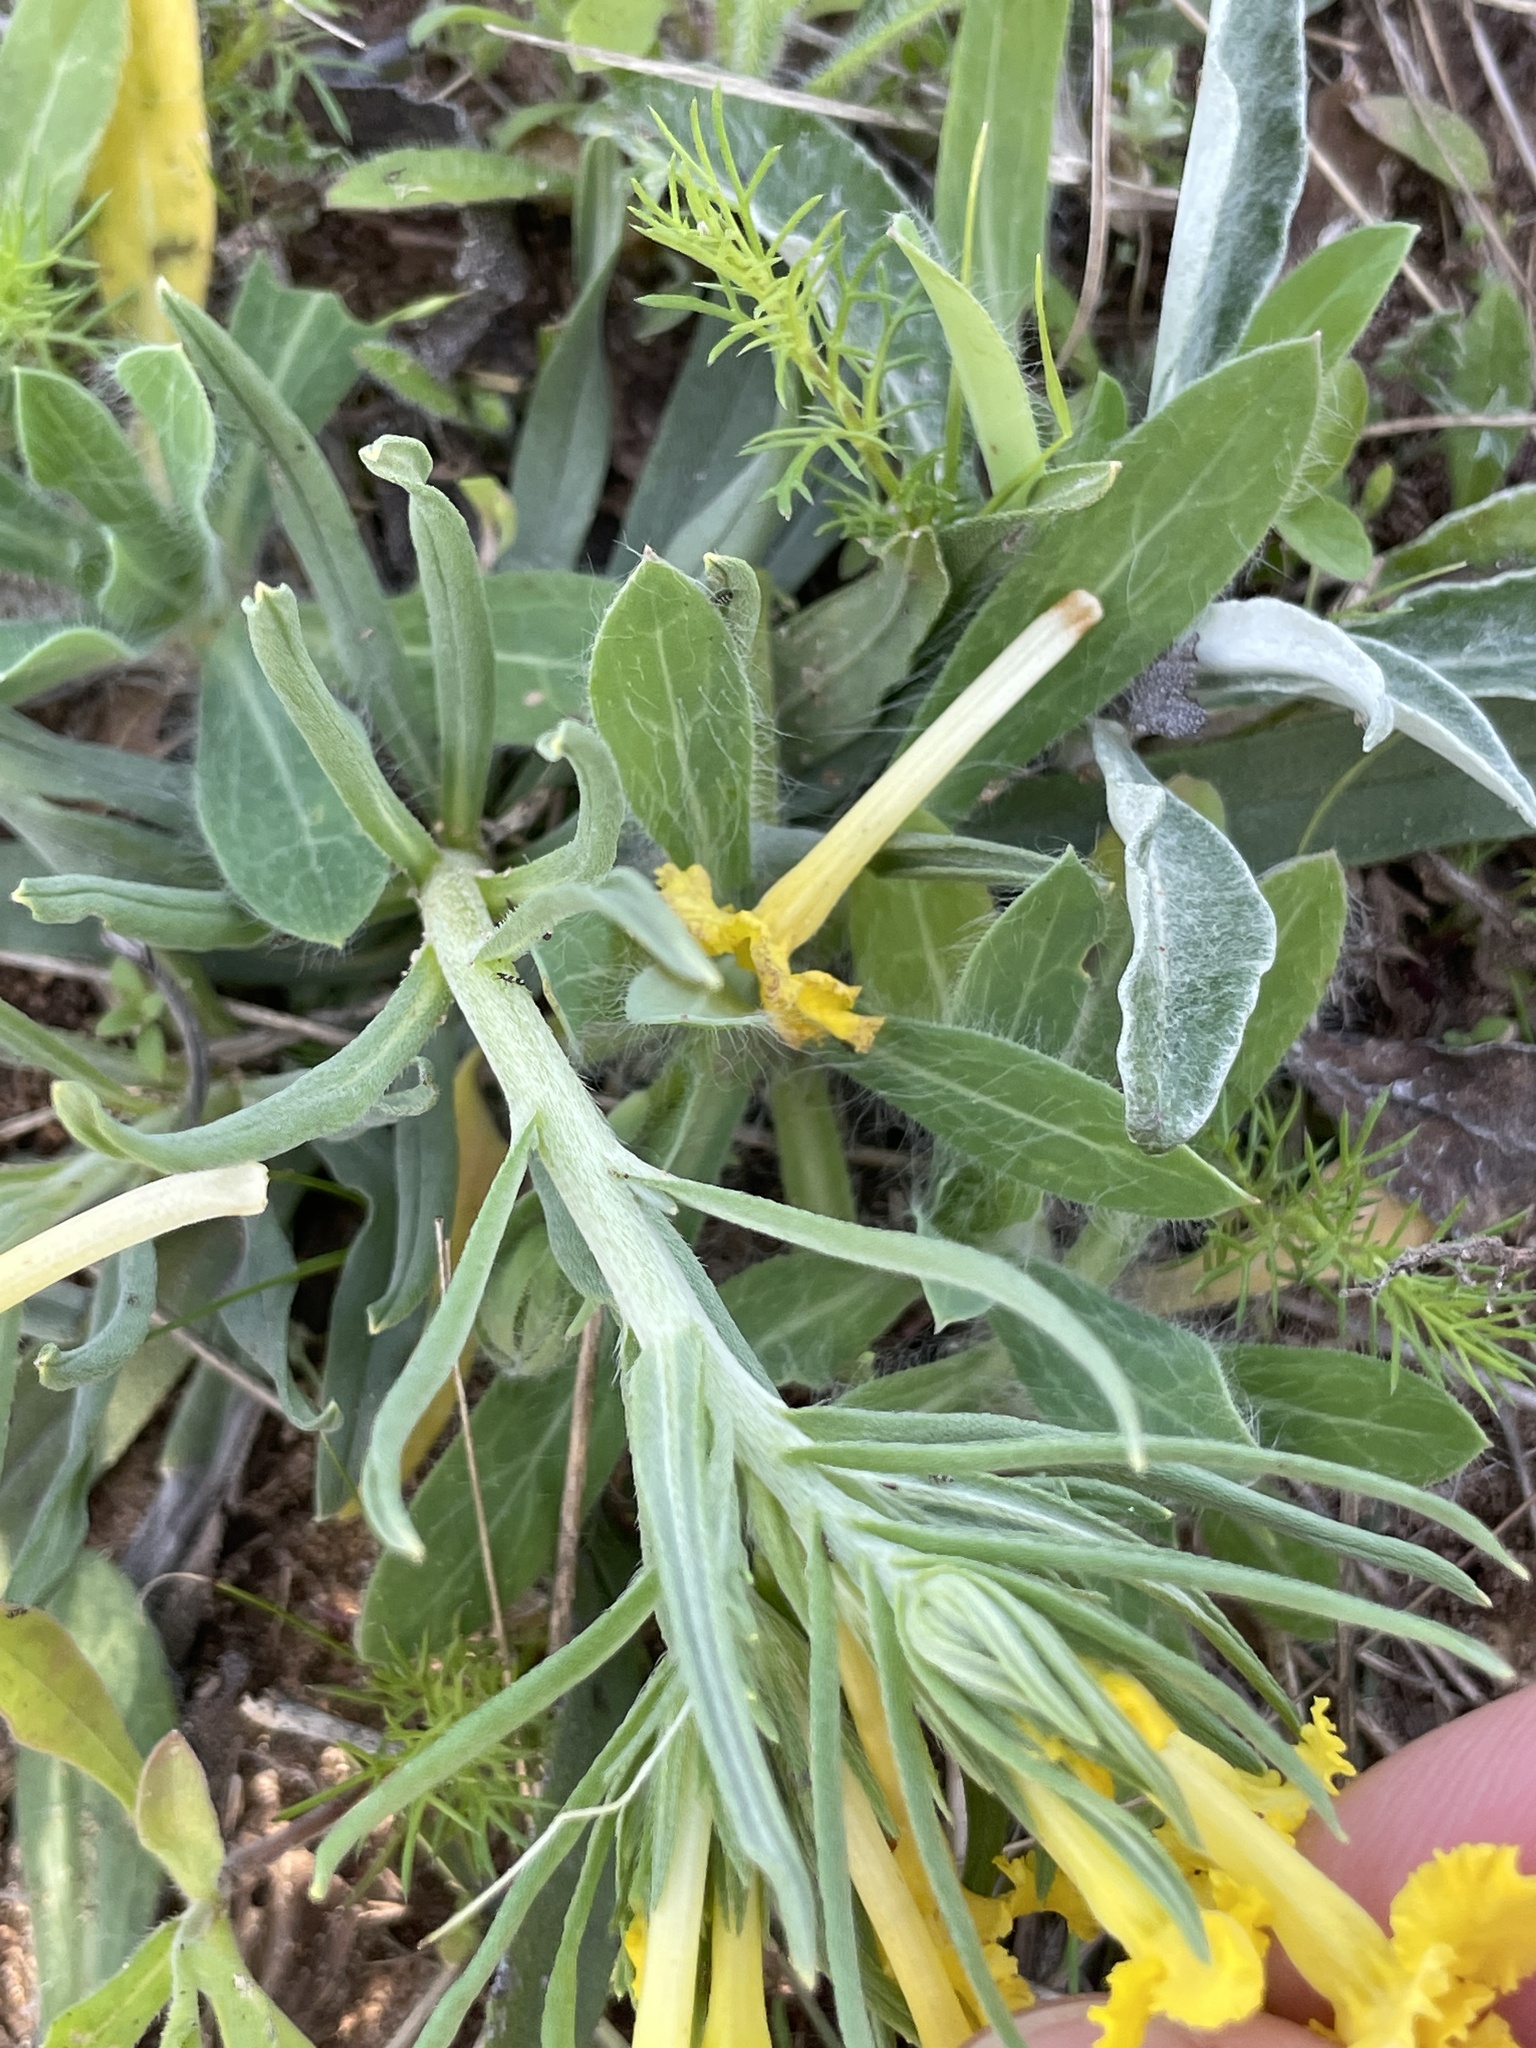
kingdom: Plantae
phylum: Tracheophyta
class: Magnoliopsida
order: Boraginales
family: Boraginaceae
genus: Lithospermum
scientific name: Lithospermum incisum
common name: Fringed gromwell
